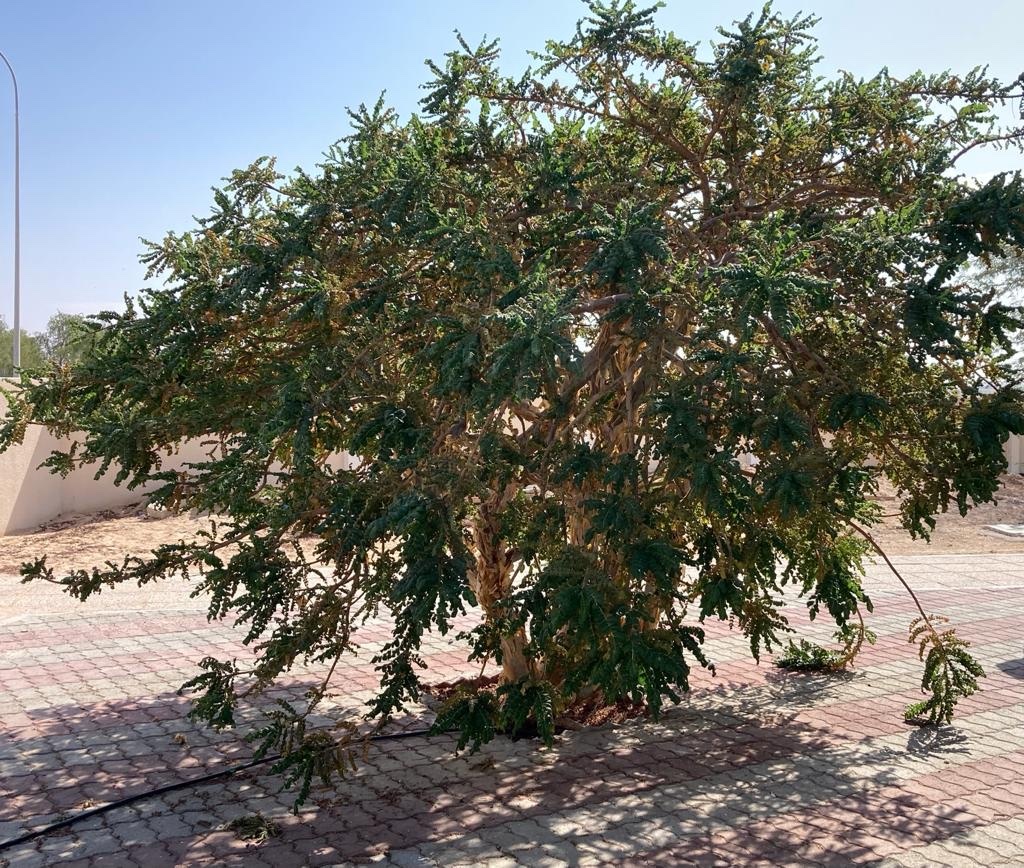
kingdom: Plantae
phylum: Tracheophyta
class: Magnoliopsida
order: Sapindales
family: Burseraceae
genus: Boswellia
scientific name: Boswellia sacra
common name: Olibanum-tree
